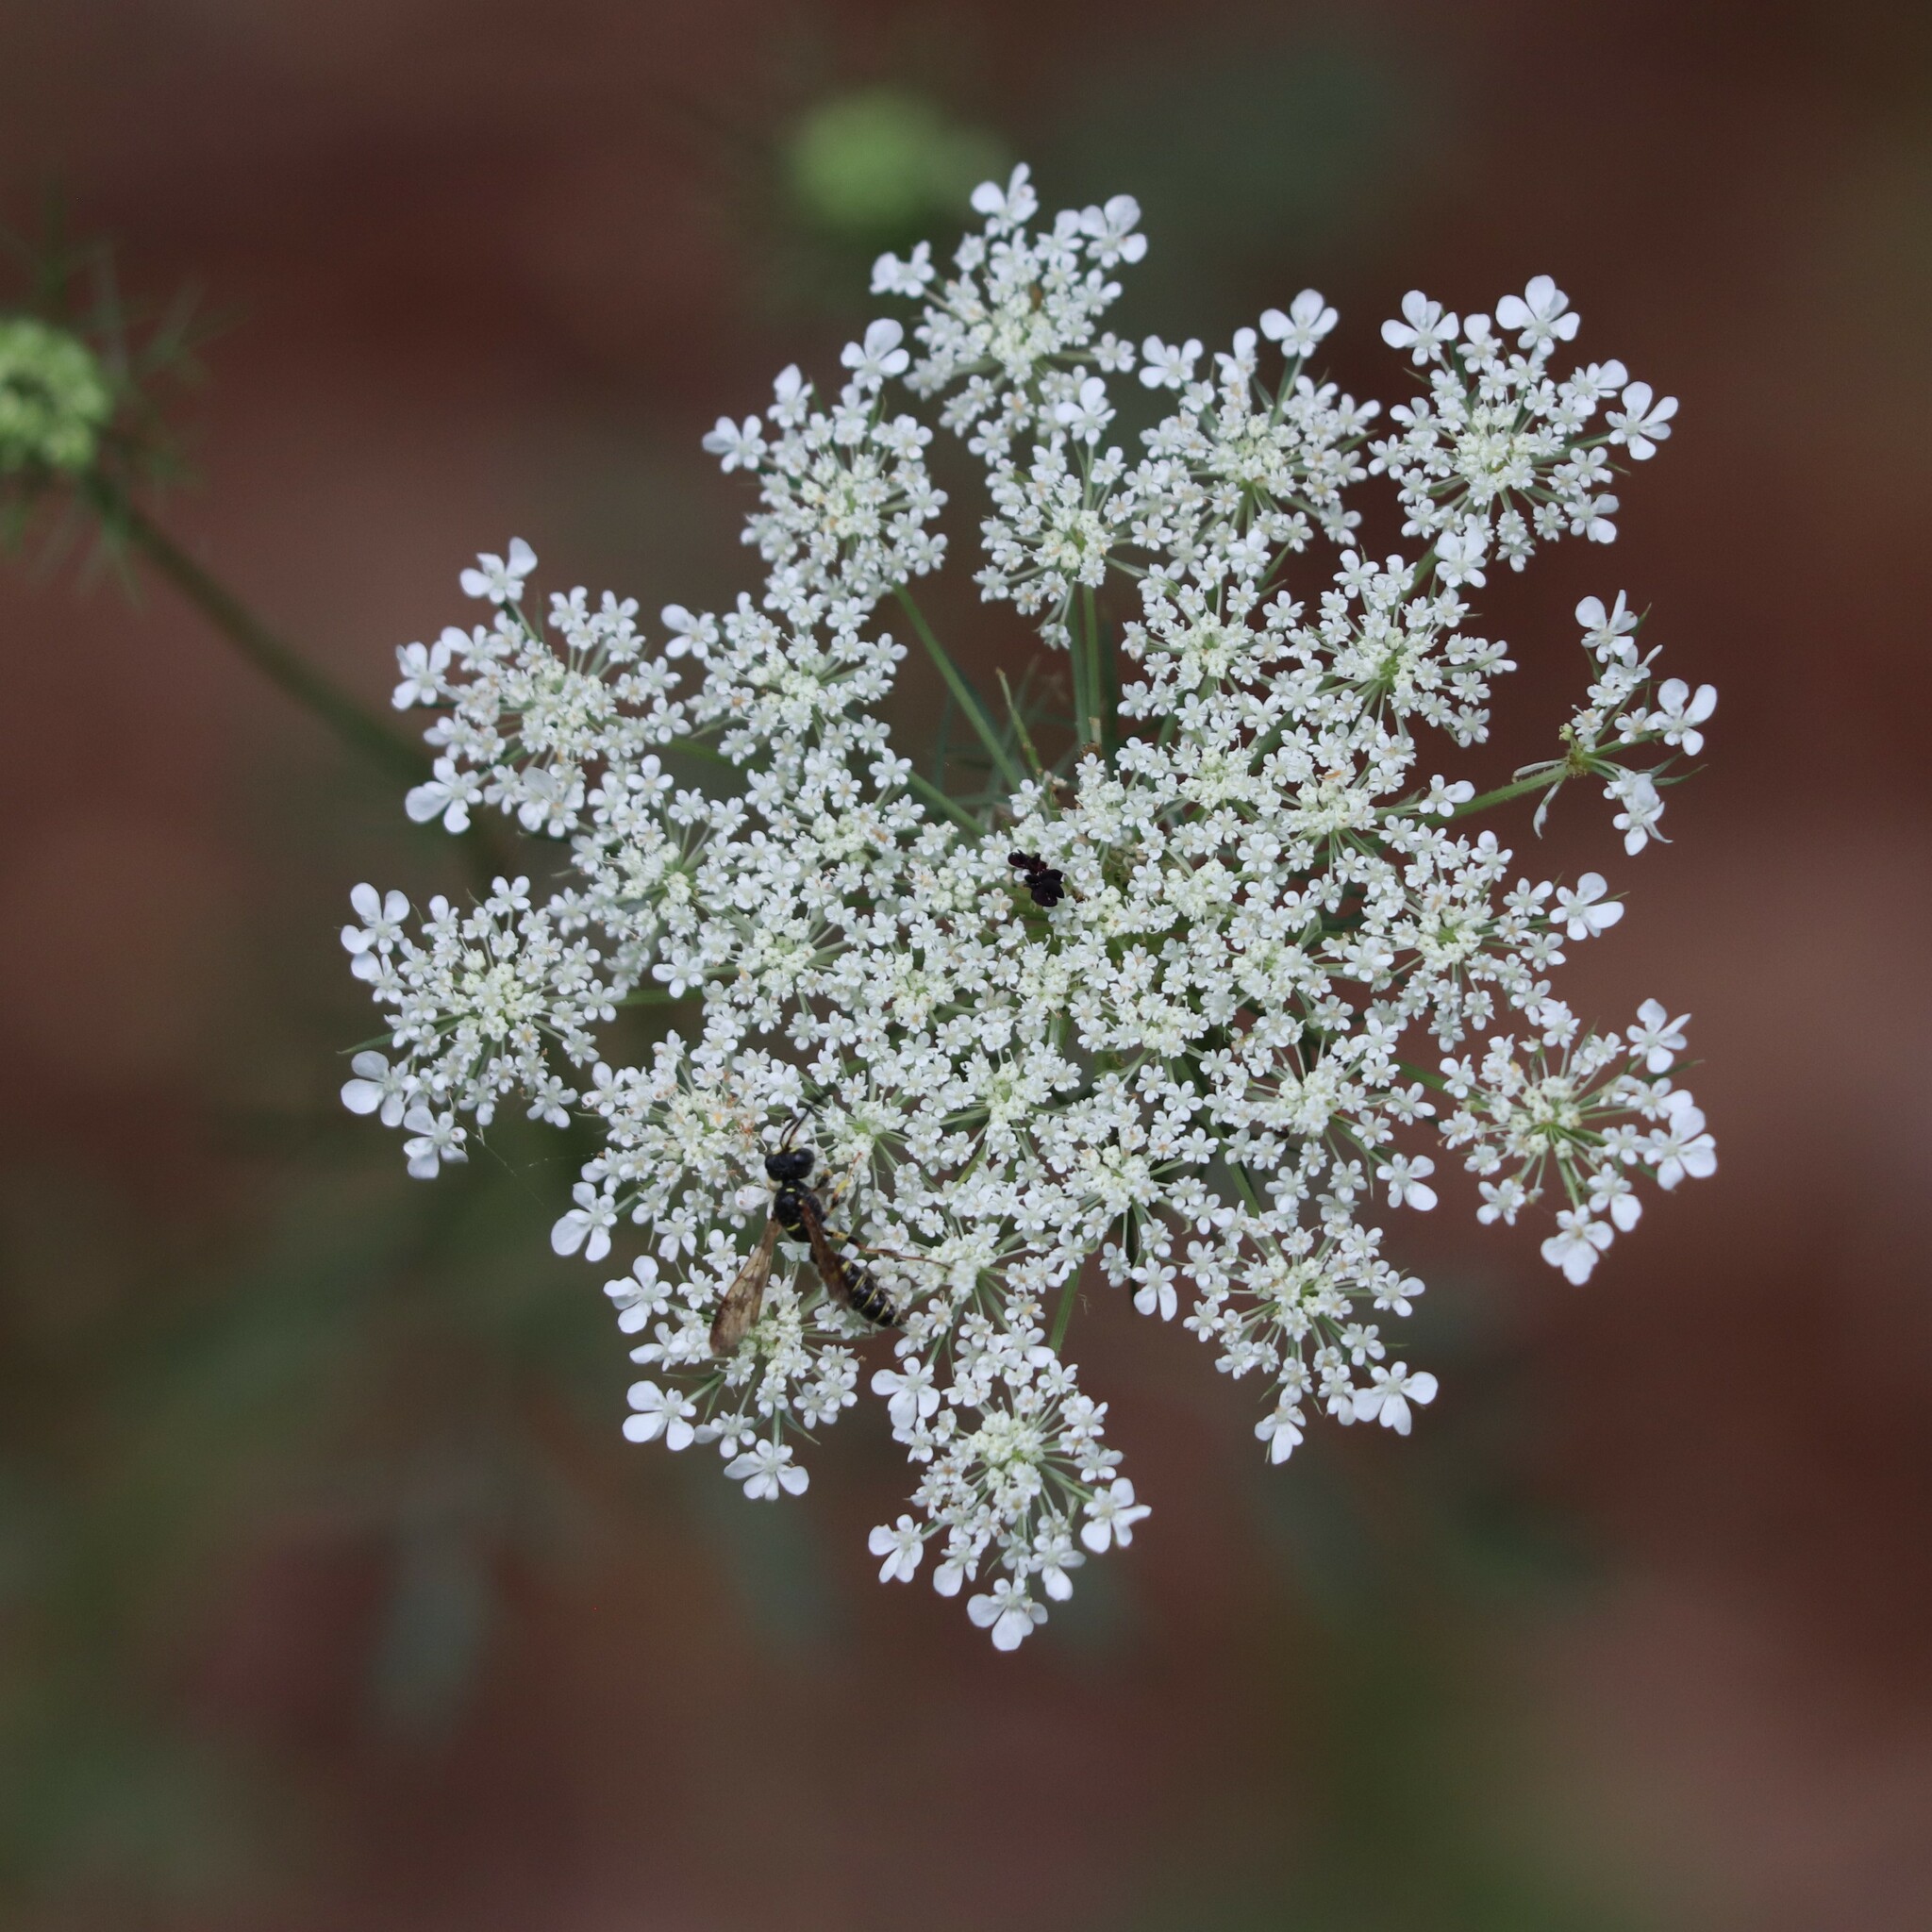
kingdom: Plantae
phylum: Tracheophyta
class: Magnoliopsida
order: Apiales
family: Apiaceae
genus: Daucus
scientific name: Daucus carota
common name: Wild carrot
